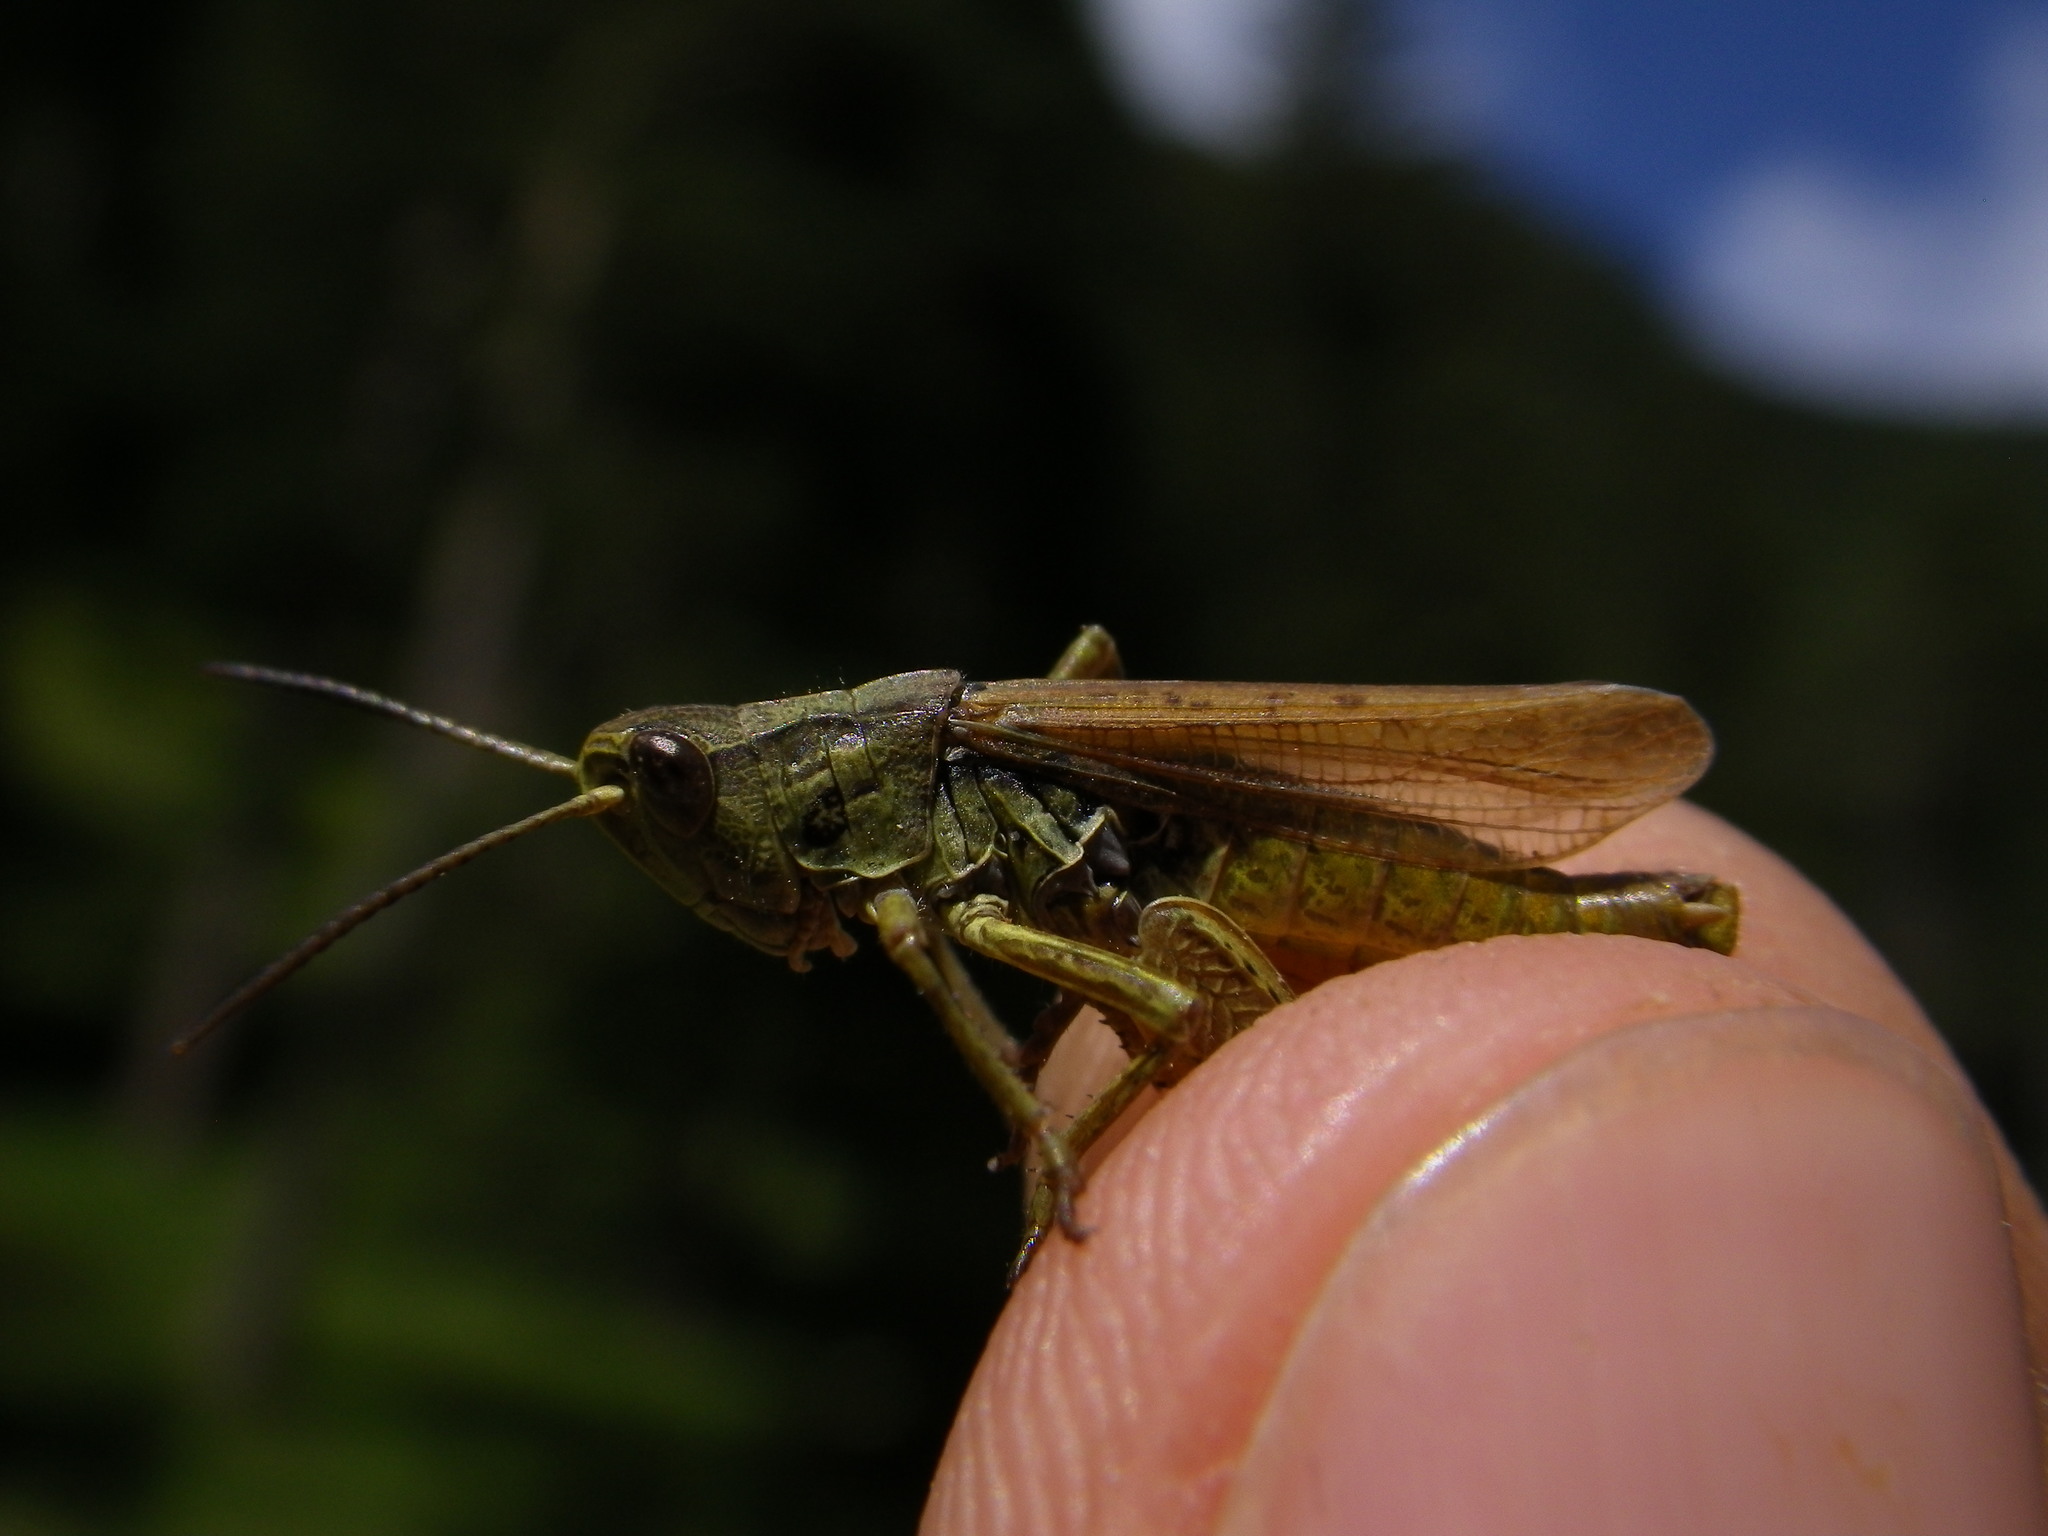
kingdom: Animalia
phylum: Arthropoda
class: Insecta
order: Orthoptera
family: Acrididae
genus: Chorthippus
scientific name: Chorthippus apricarius
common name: Upland field grasshopper
